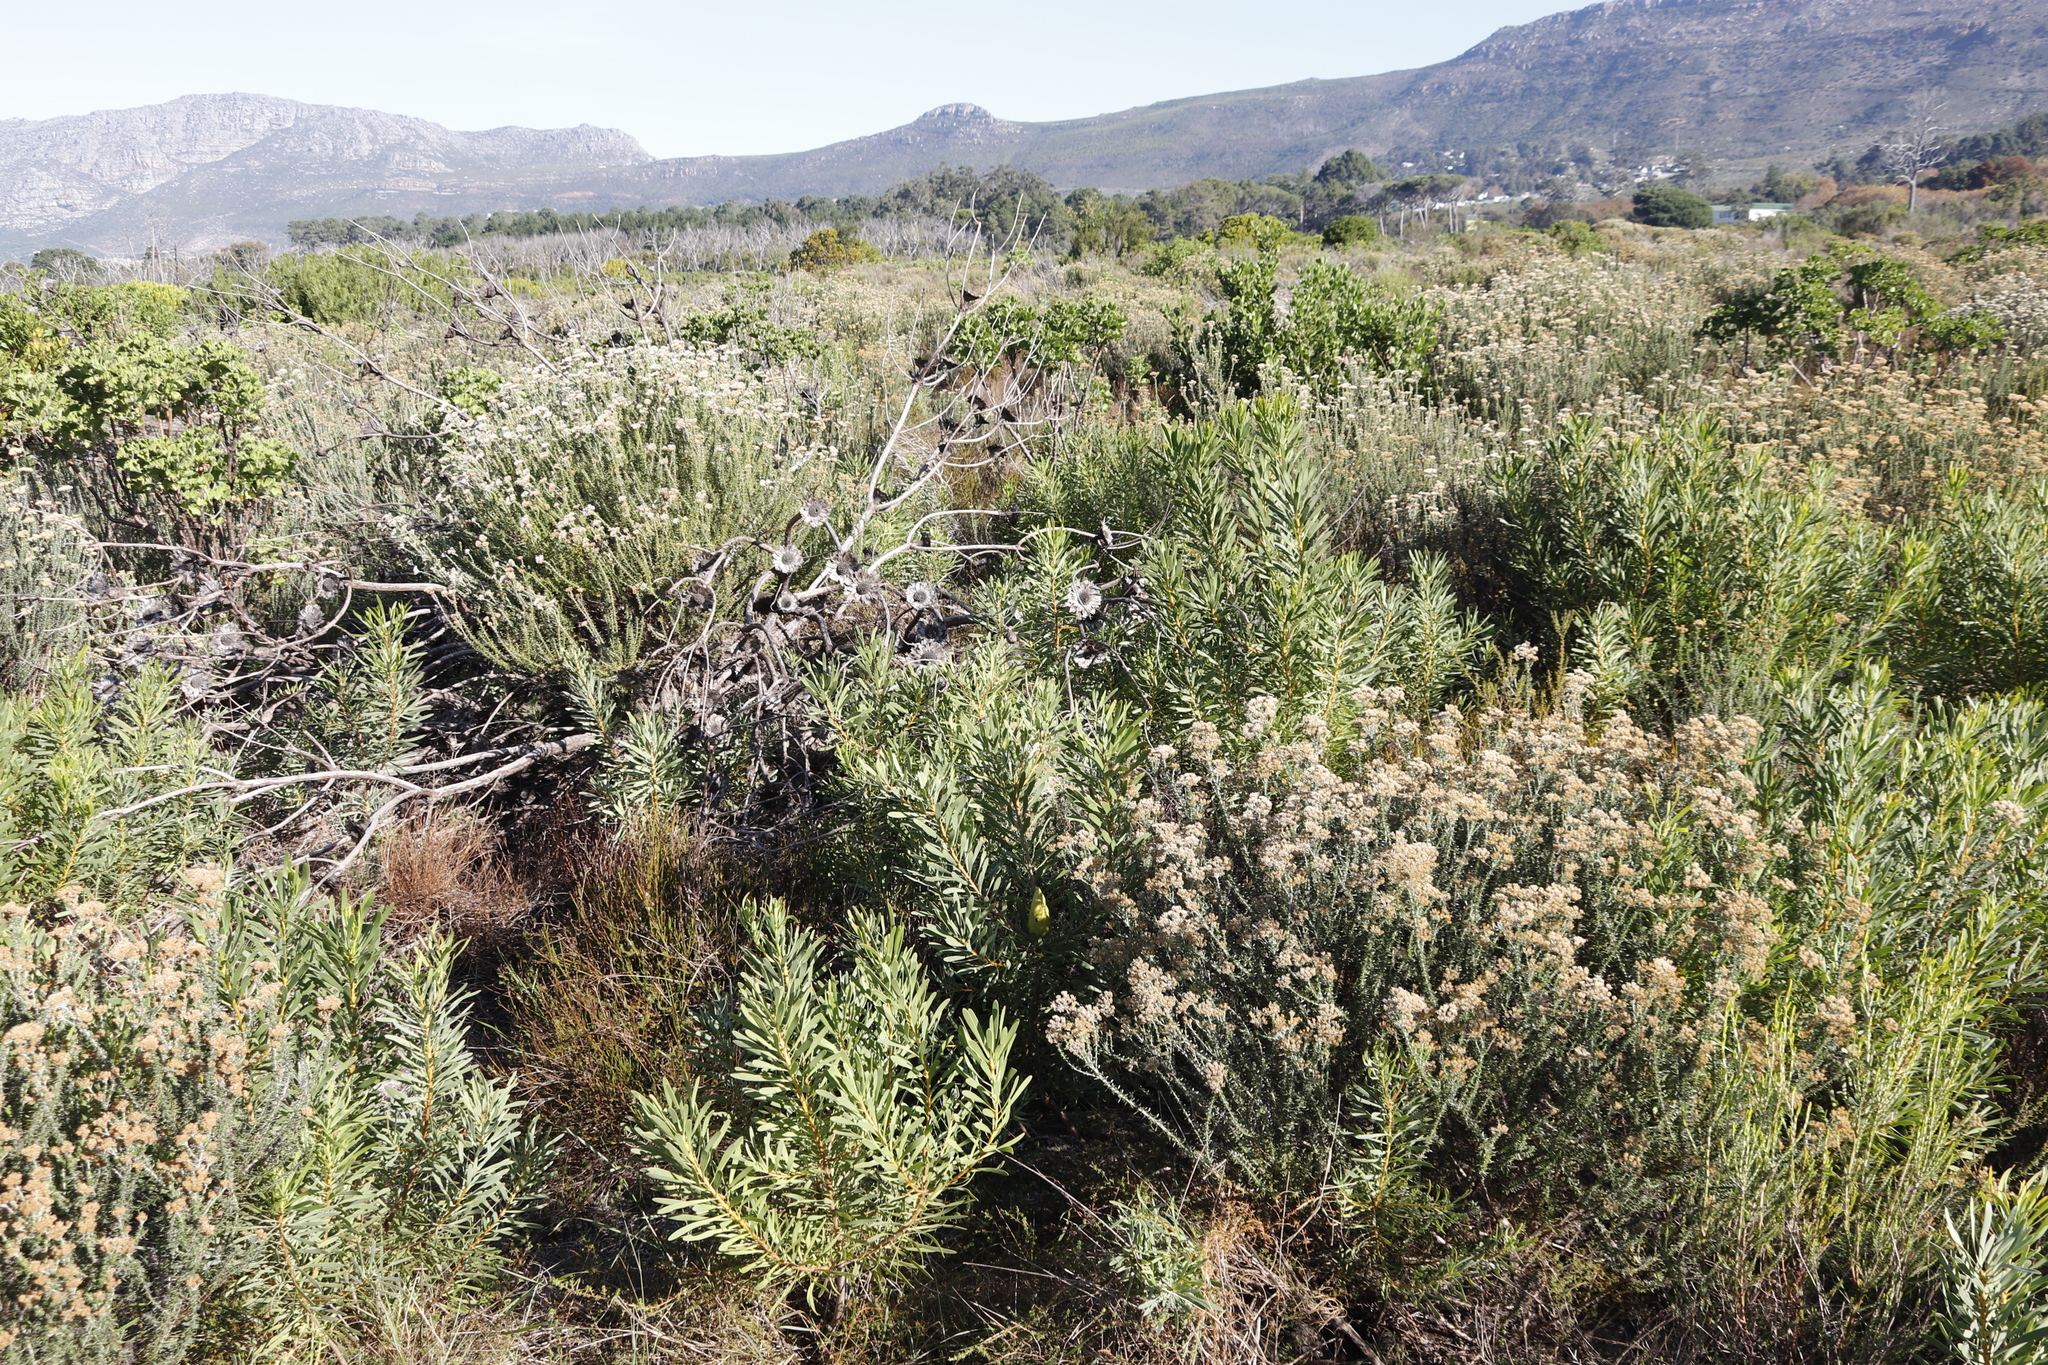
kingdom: Plantae
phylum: Tracheophyta
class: Magnoliopsida
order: Proteales
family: Proteaceae
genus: Protea
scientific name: Protea repens
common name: Sugarbush
